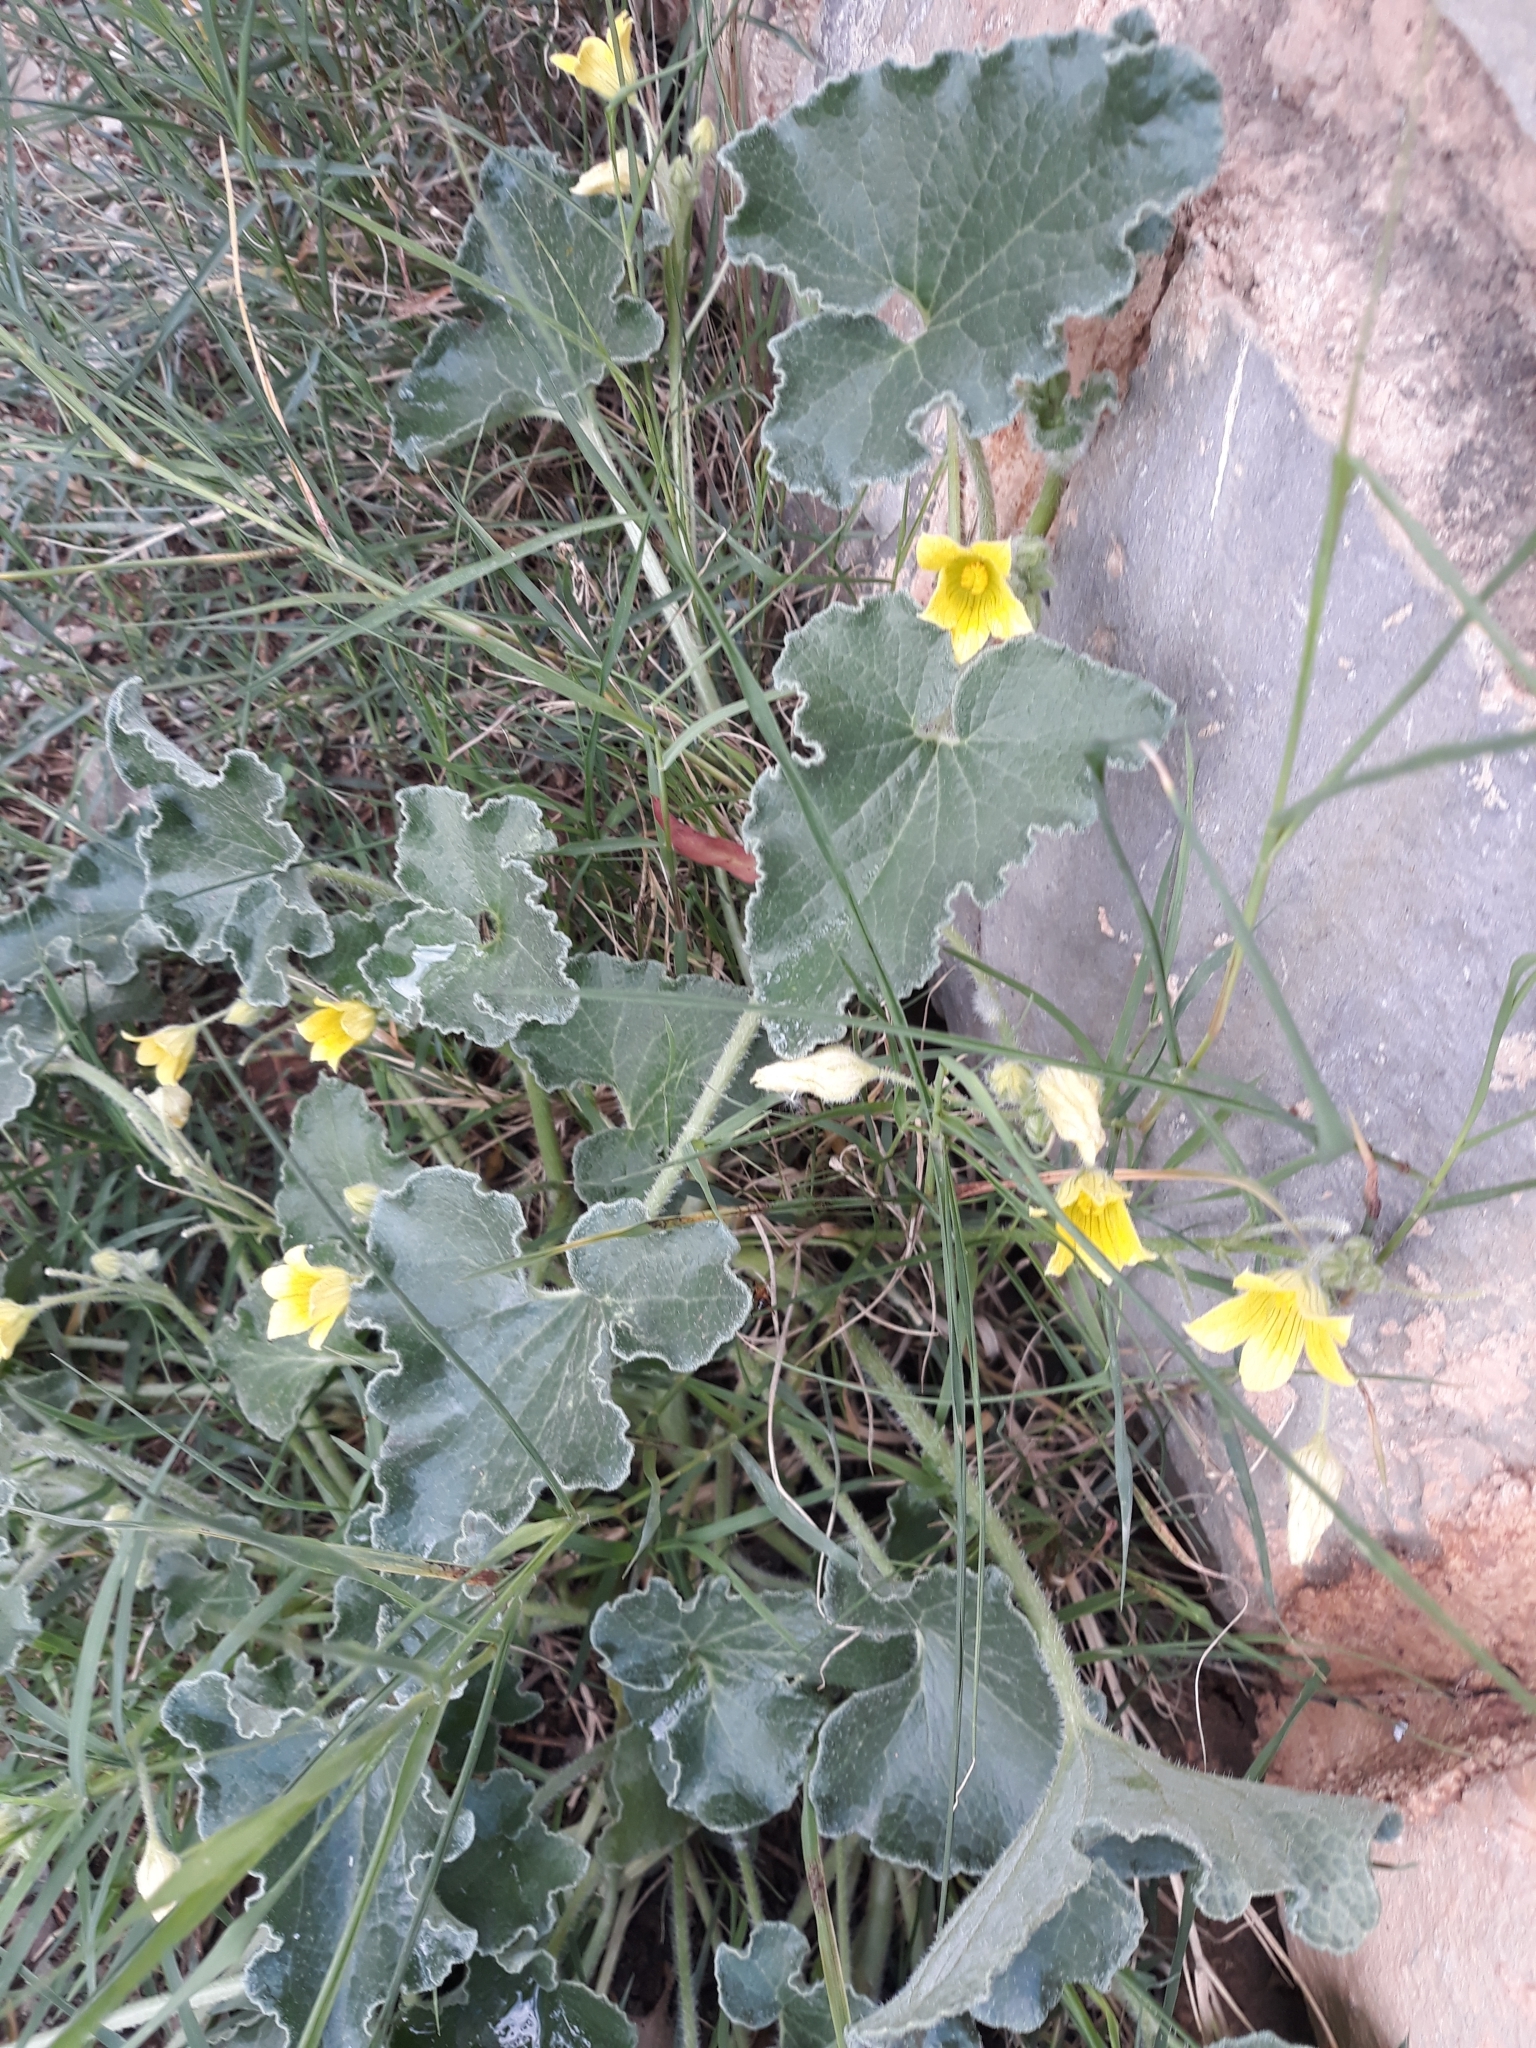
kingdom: Plantae
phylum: Tracheophyta
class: Magnoliopsida
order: Cucurbitales
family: Cucurbitaceae
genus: Ecballium
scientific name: Ecballium elaterium
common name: Squirting cucumber
